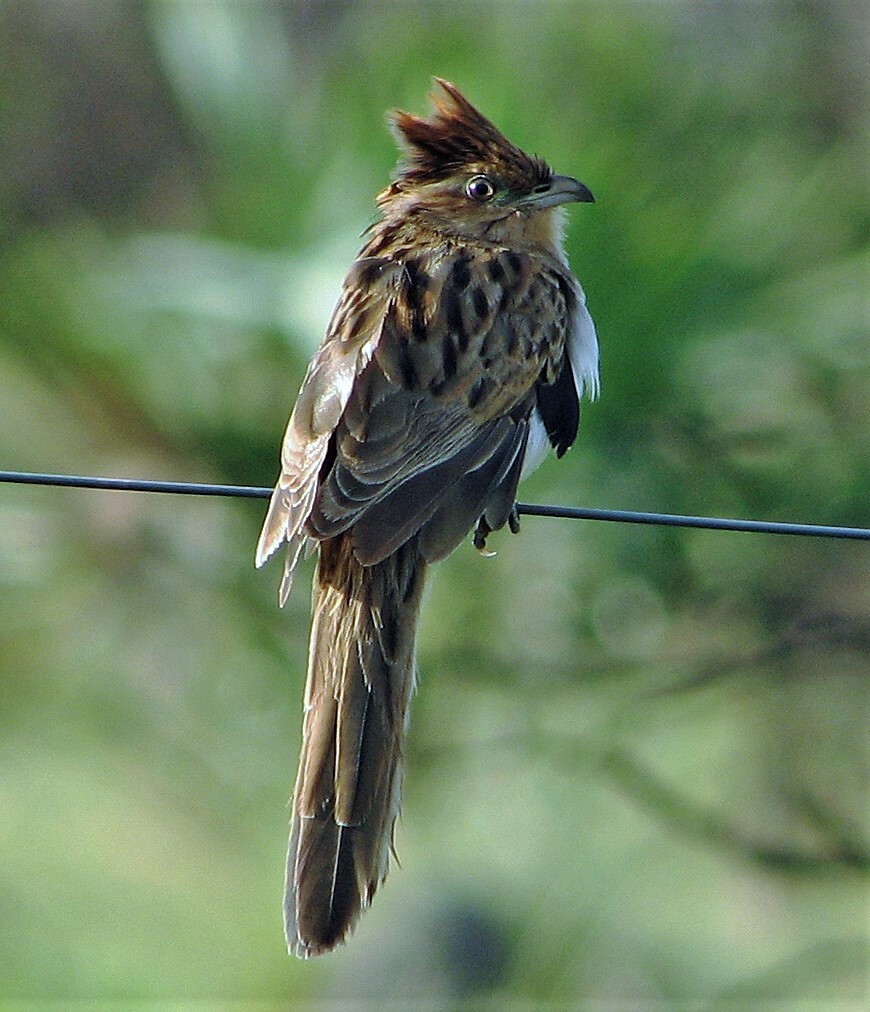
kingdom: Animalia
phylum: Chordata
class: Aves
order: Cuculiformes
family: Cuculidae
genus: Tapera
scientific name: Tapera naevia
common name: Striped cuckoo
